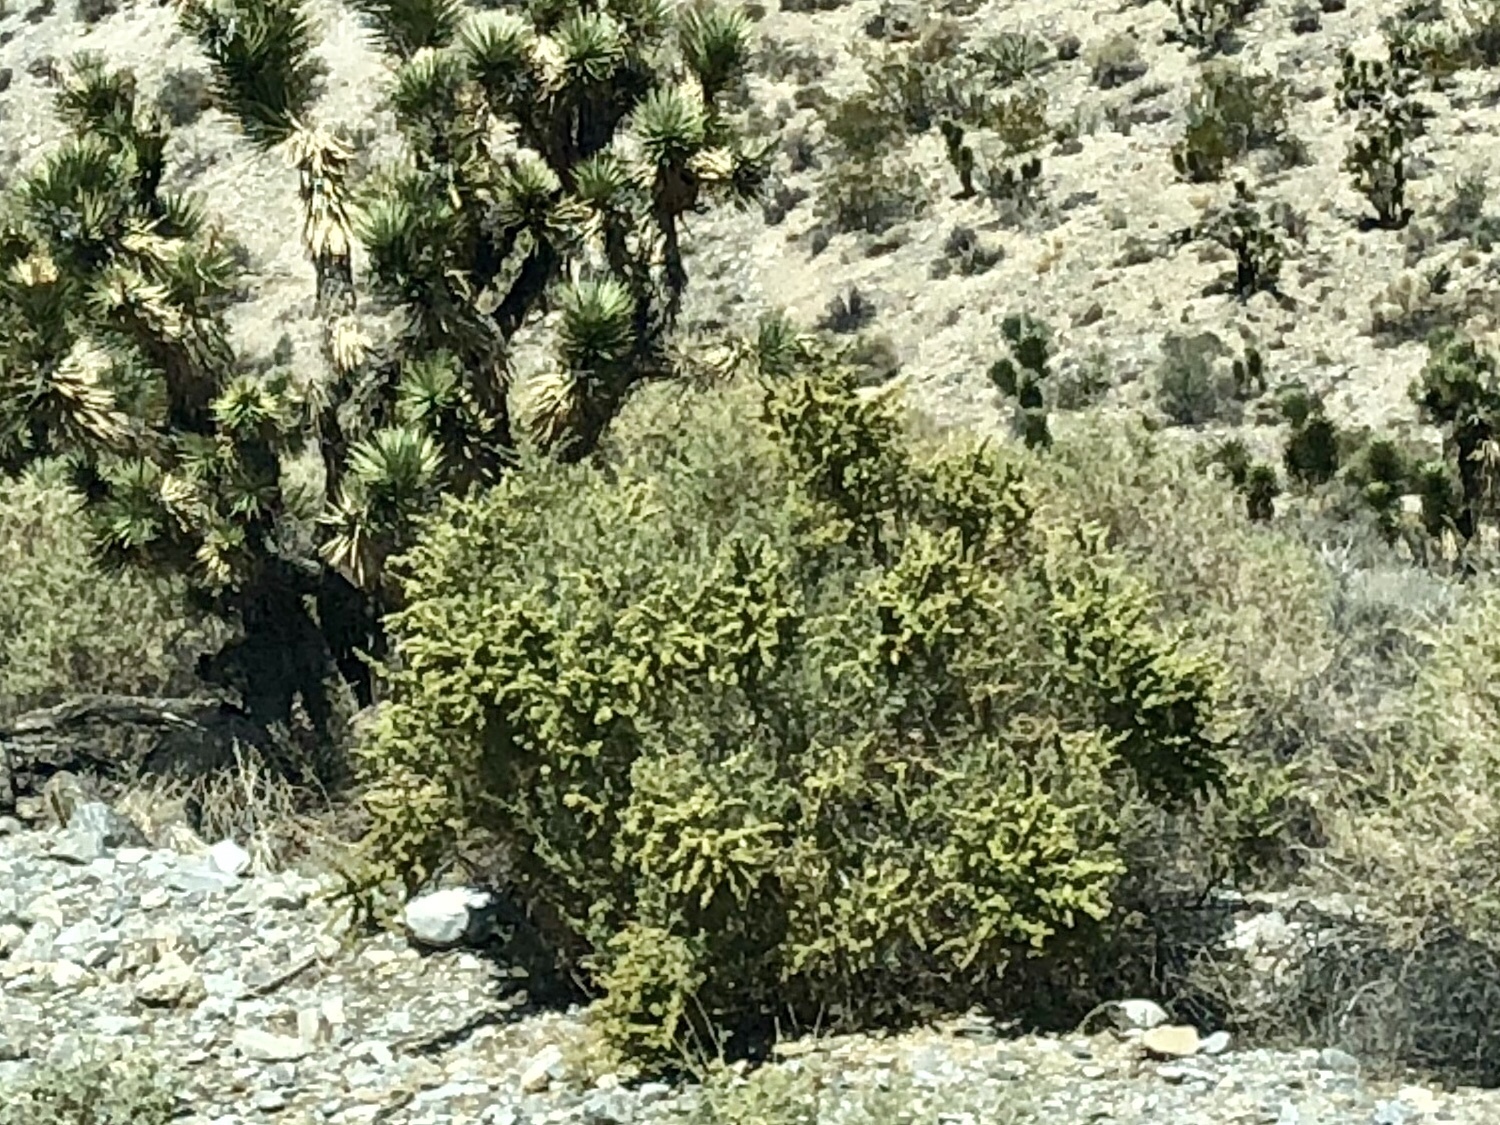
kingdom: Plantae
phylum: Tracheophyta
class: Magnoliopsida
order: Caryophyllales
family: Amaranthaceae
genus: Atriplex
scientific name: Atriplex canescens
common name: Four-wing saltbush
